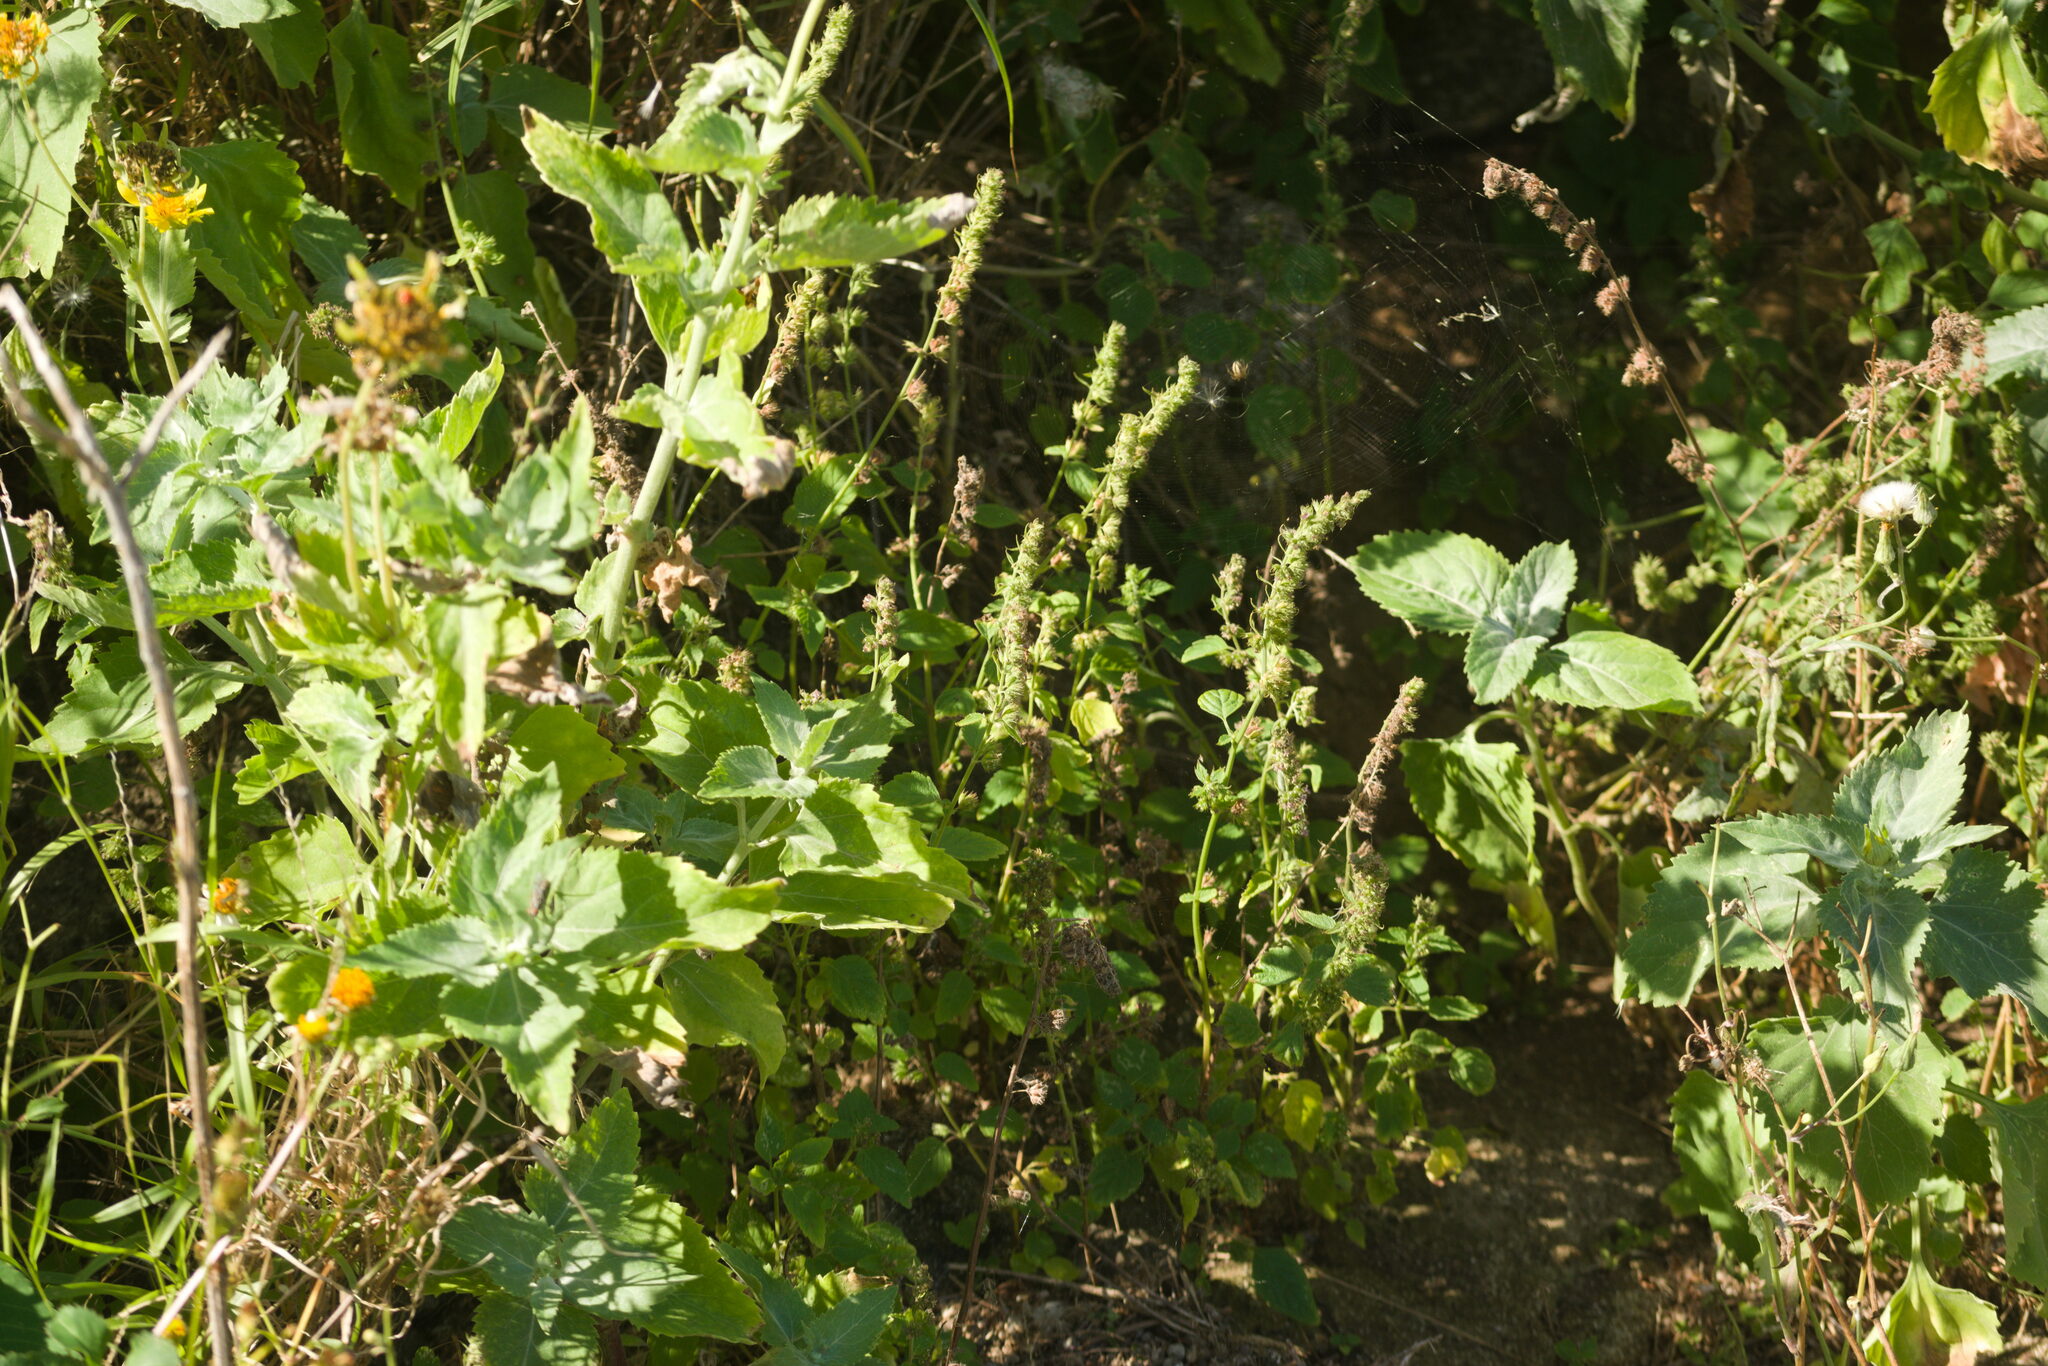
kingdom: Plantae
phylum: Tracheophyta
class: Magnoliopsida
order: Lamiales
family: Lamiaceae
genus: Mesosphaerum
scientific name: Mesosphaerum pectinatum
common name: Comb hyptis
